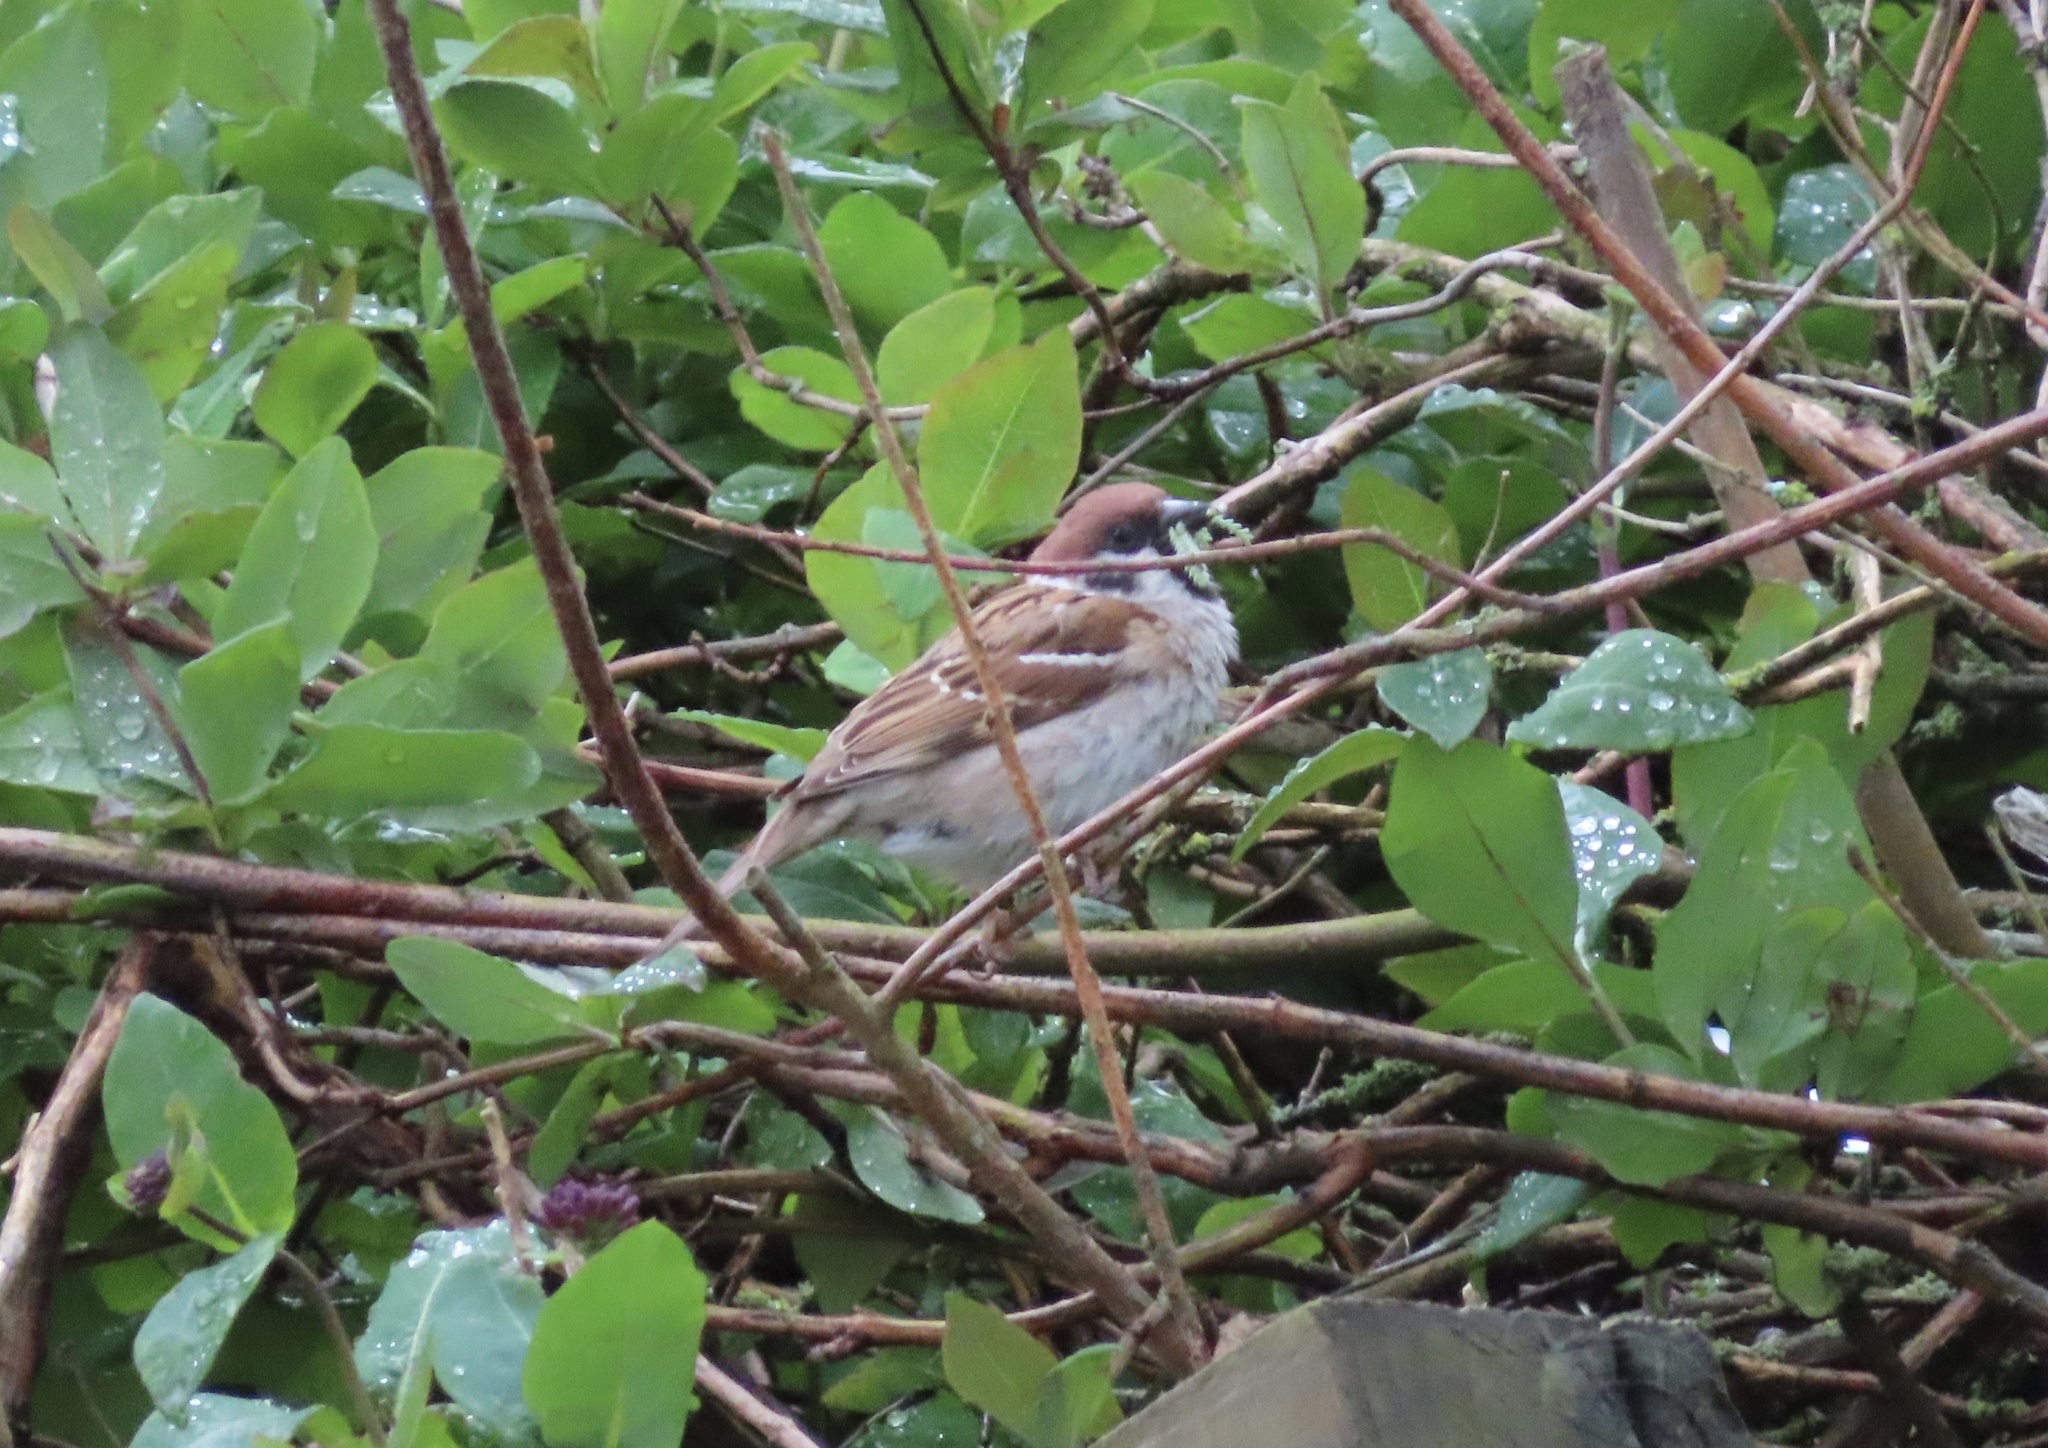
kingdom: Animalia
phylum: Chordata
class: Aves
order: Passeriformes
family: Passeridae
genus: Passer
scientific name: Passer montanus
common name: Eurasian tree sparrow
